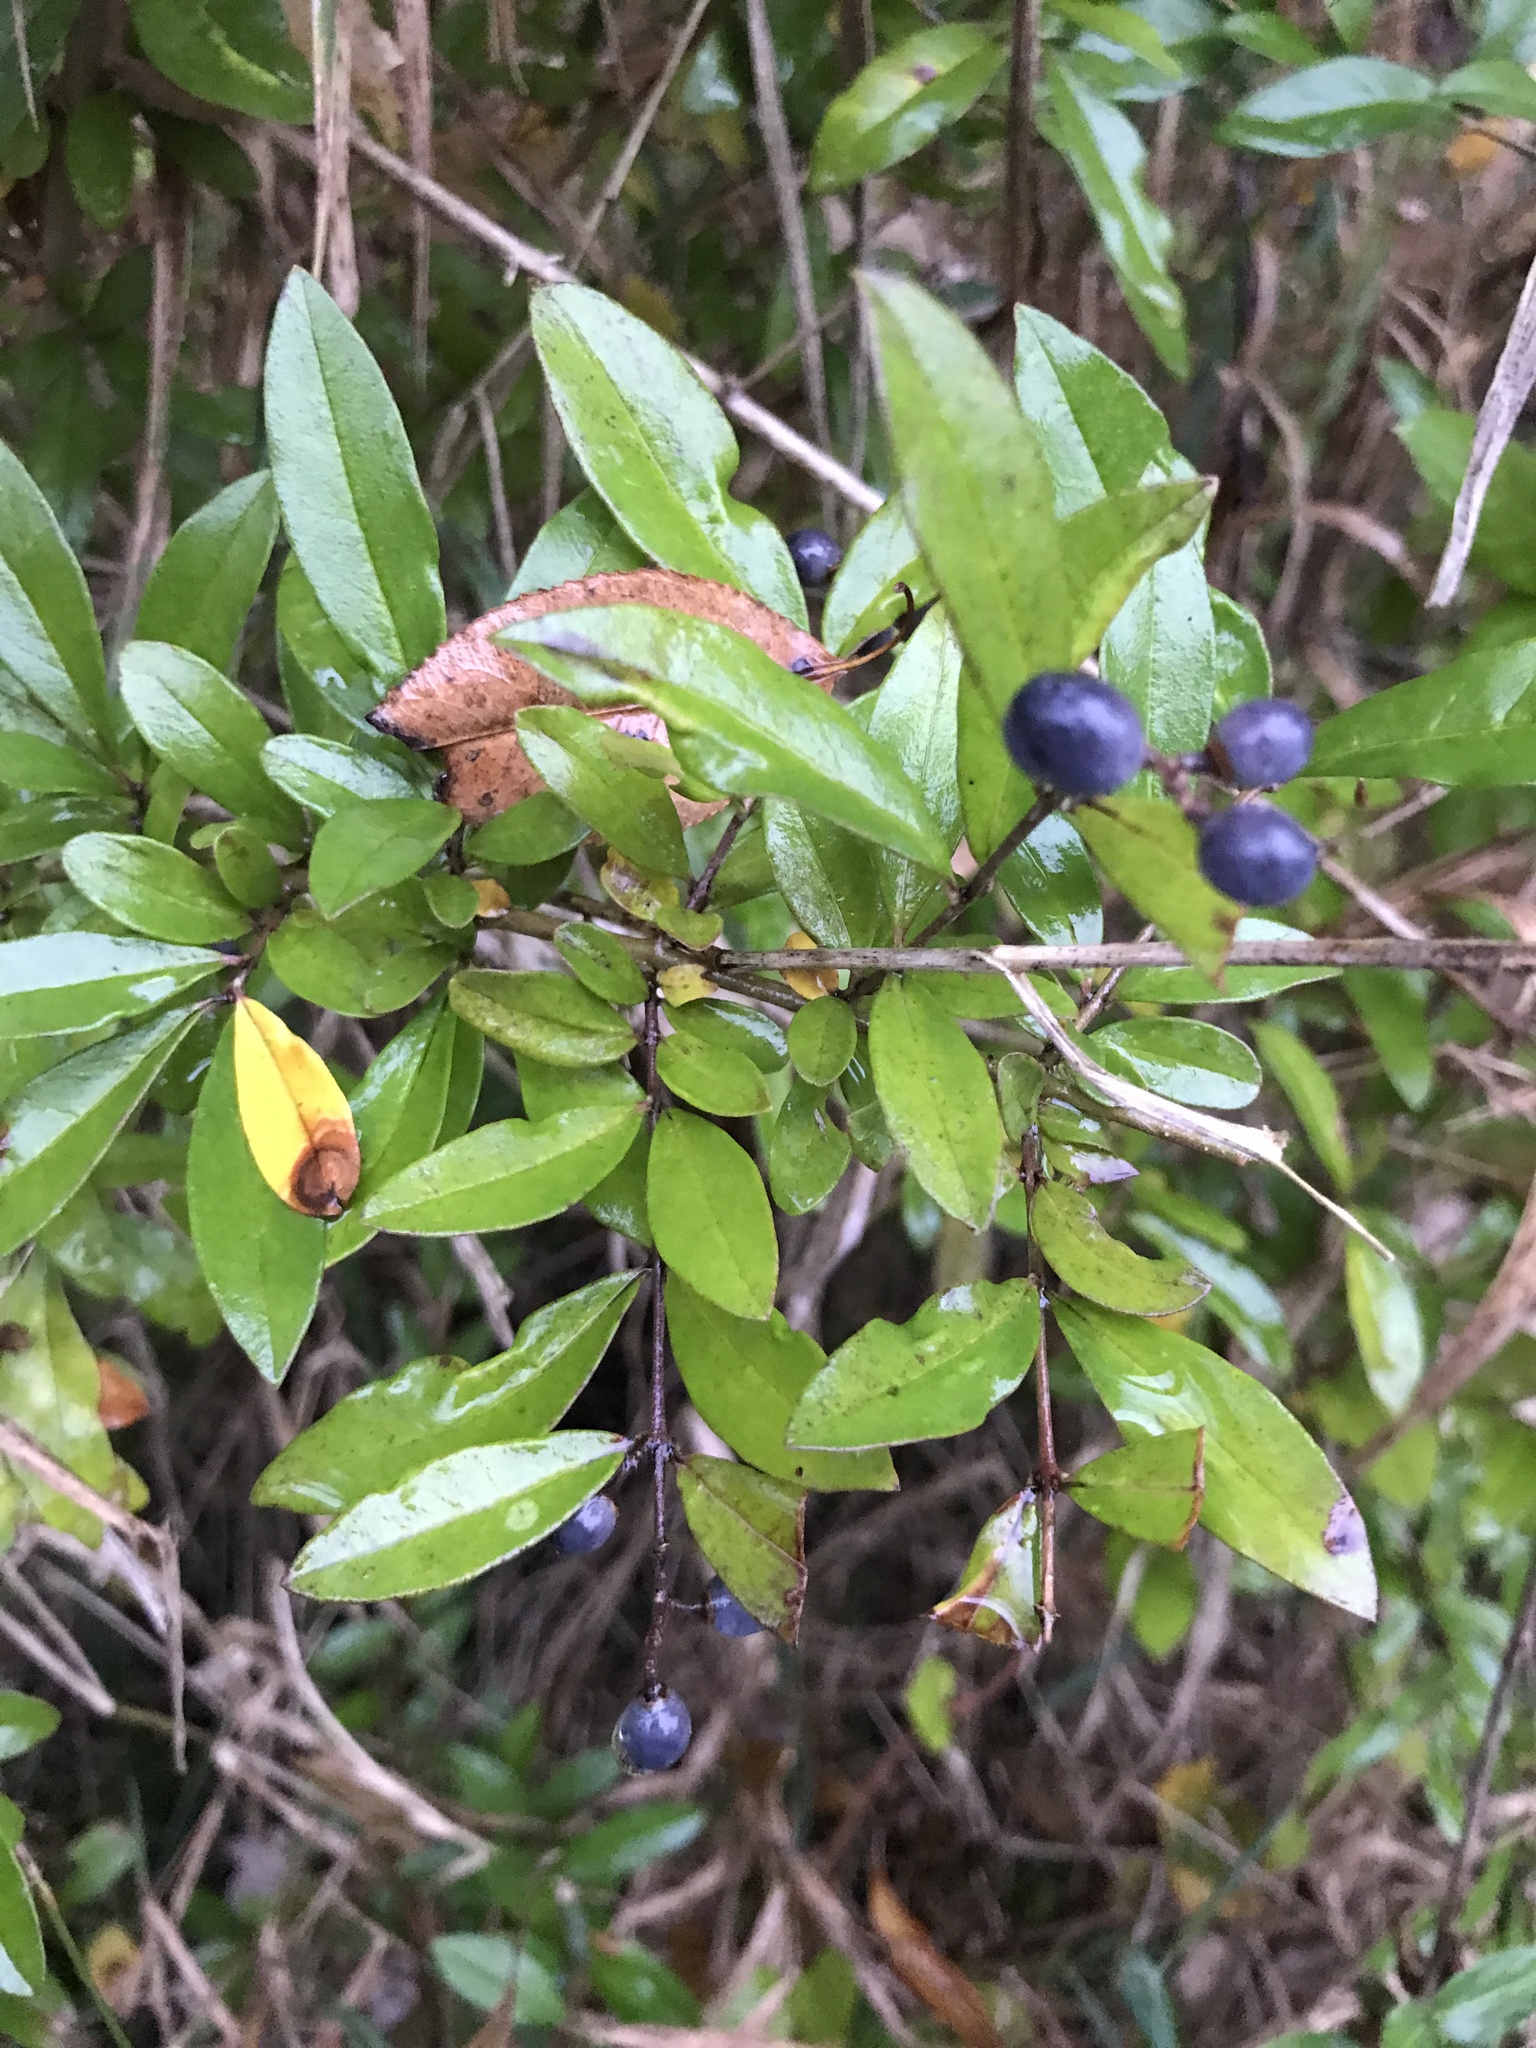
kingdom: Plantae
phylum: Tracheophyta
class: Magnoliopsida
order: Lamiales
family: Oleaceae
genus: Ligustrum
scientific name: Ligustrum obtusifolium
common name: Border privet
